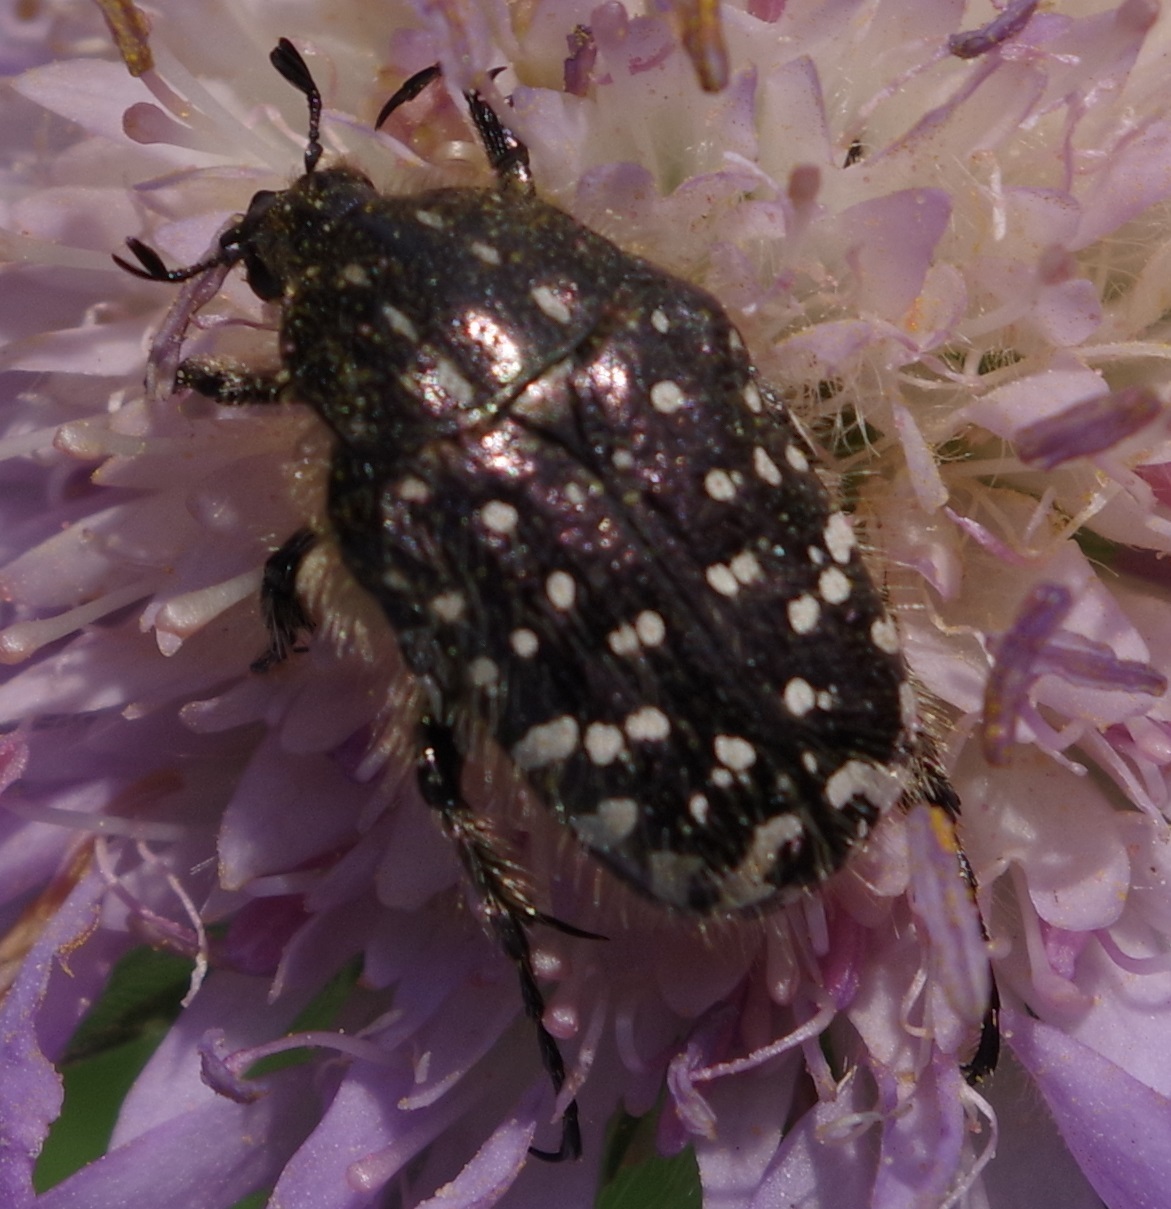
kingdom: Animalia
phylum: Arthropoda
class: Insecta
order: Coleoptera
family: Scarabaeidae
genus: Oxythyrea
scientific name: Oxythyrea funesta
